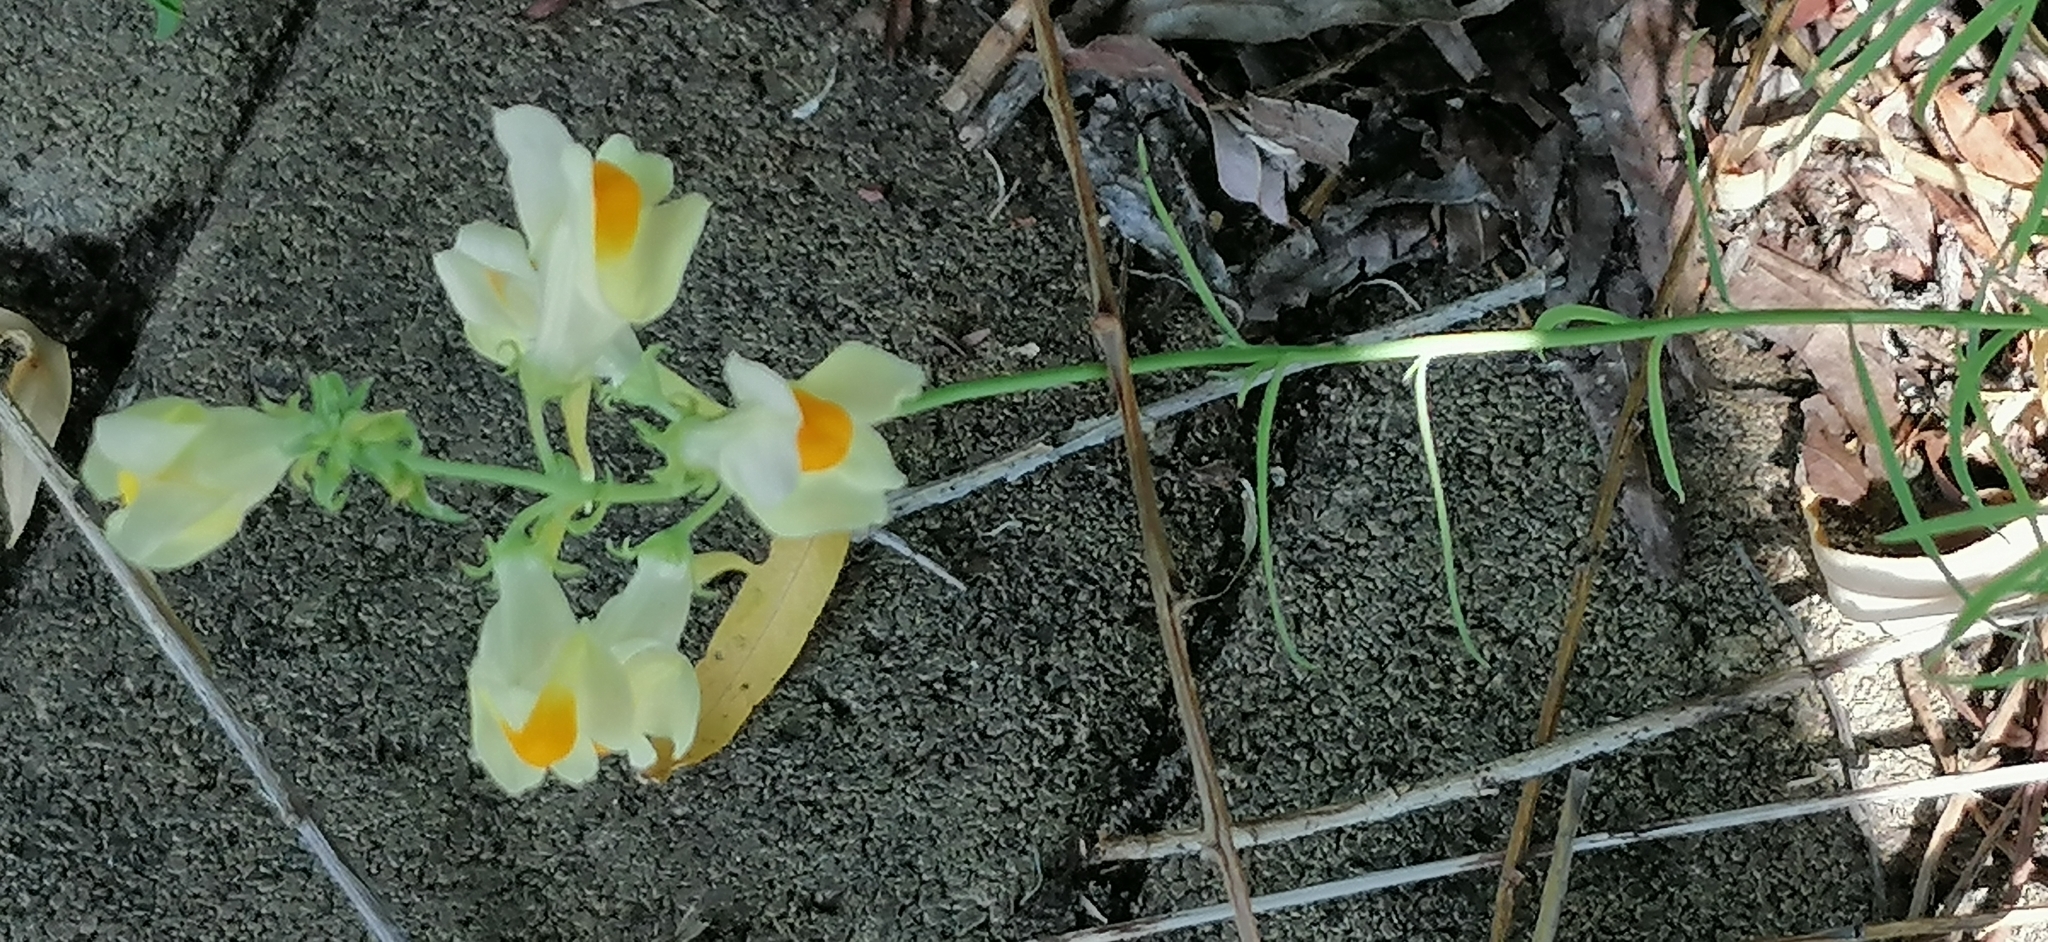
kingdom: Plantae
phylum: Tracheophyta
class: Magnoliopsida
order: Lamiales
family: Plantaginaceae
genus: Linaria
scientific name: Linaria vulgaris
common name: Butter and eggs
